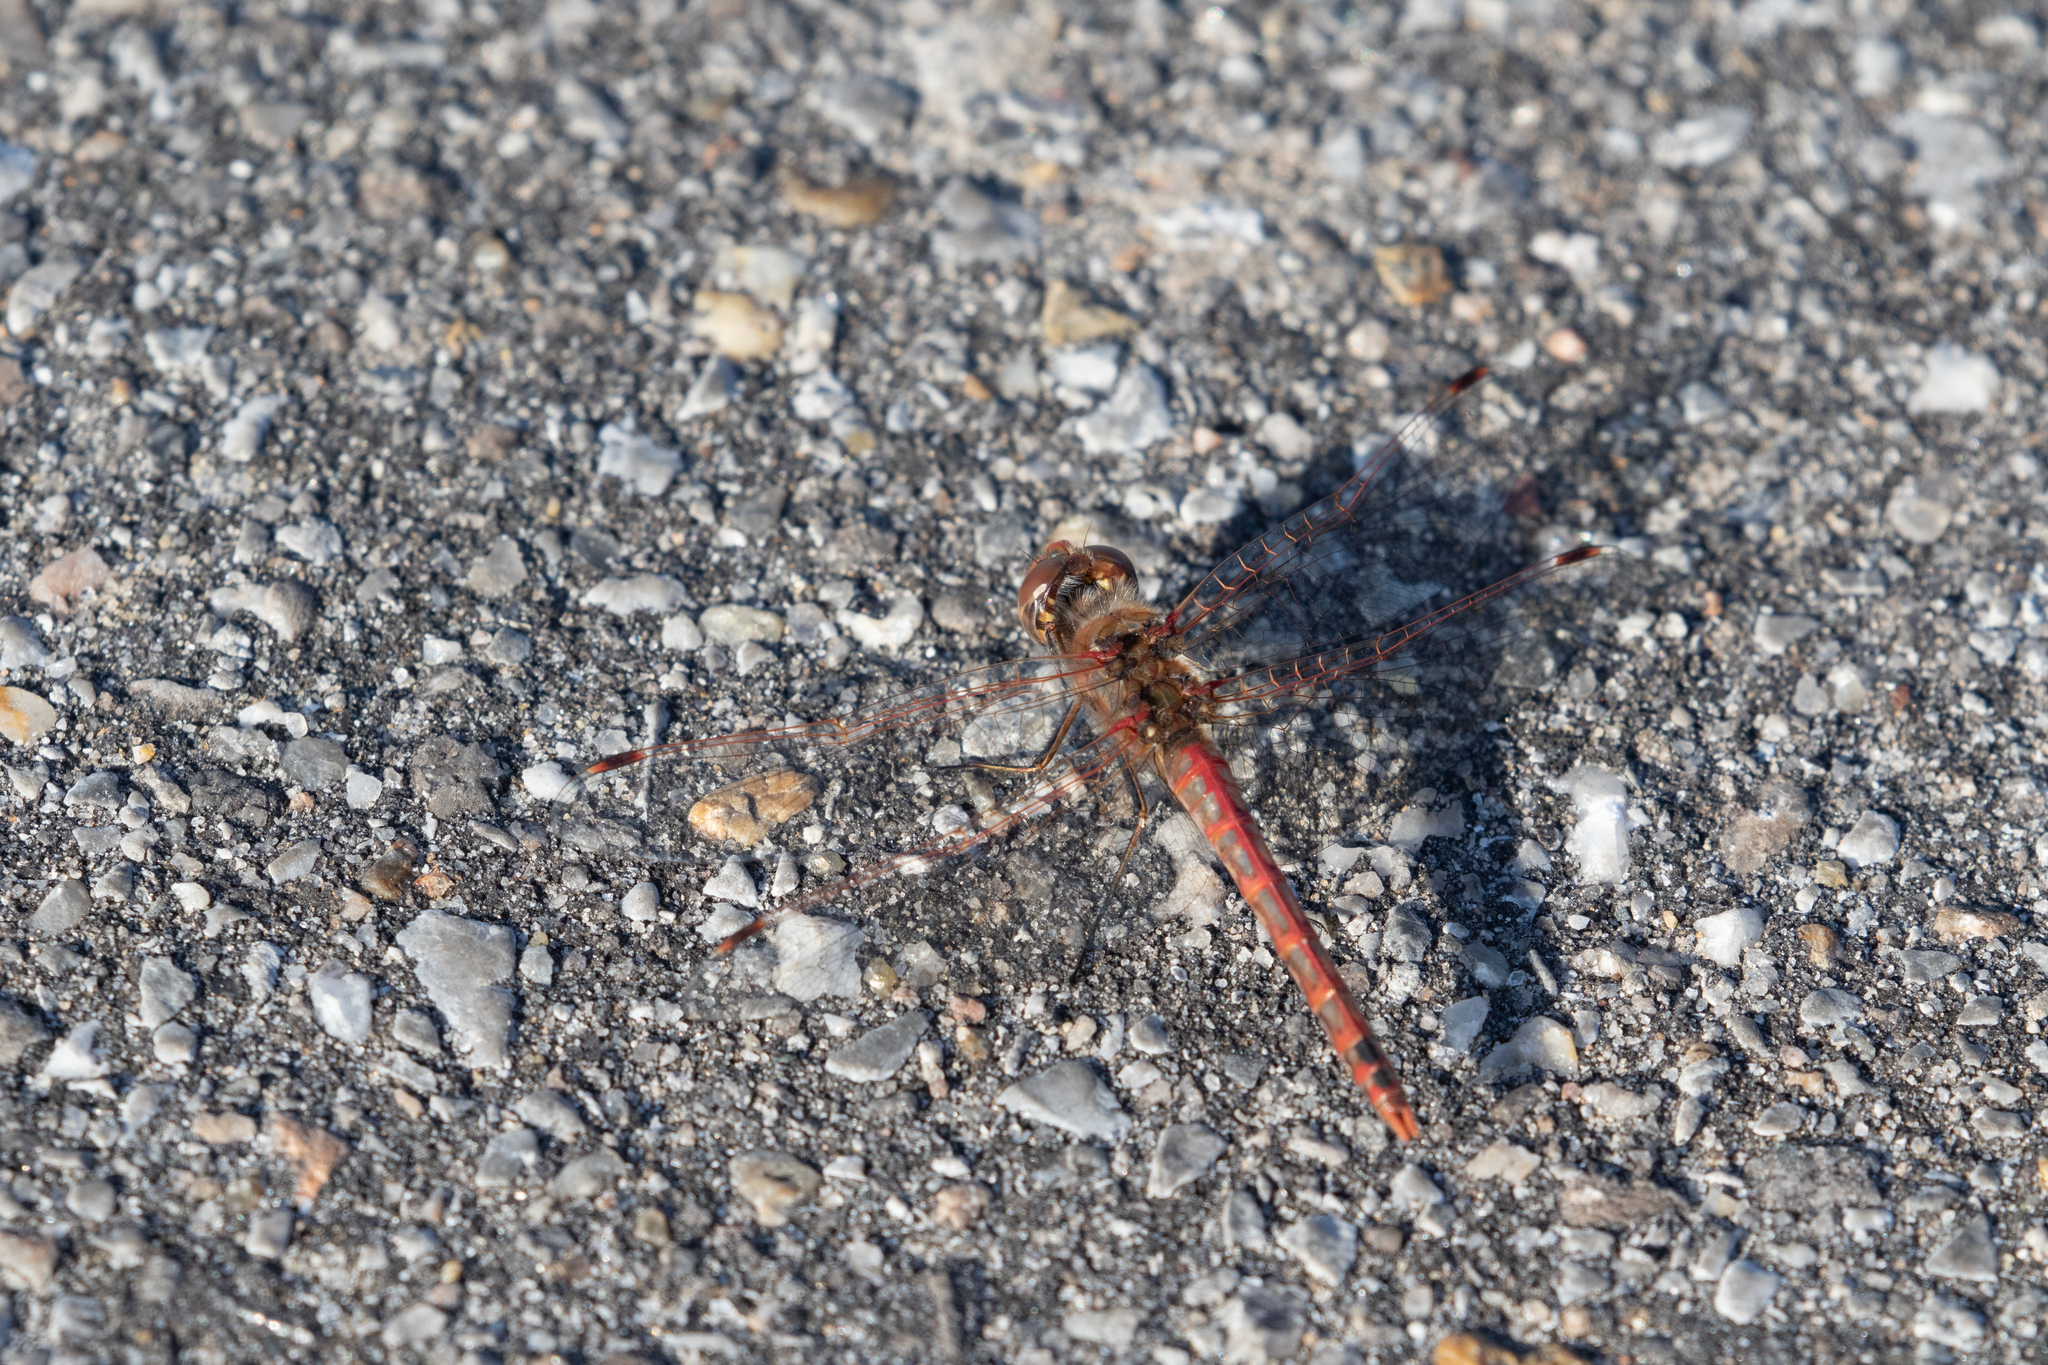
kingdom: Animalia
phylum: Arthropoda
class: Insecta
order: Odonata
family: Libellulidae
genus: Sympetrum
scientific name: Sympetrum corruptum
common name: Variegated meadowhawk
